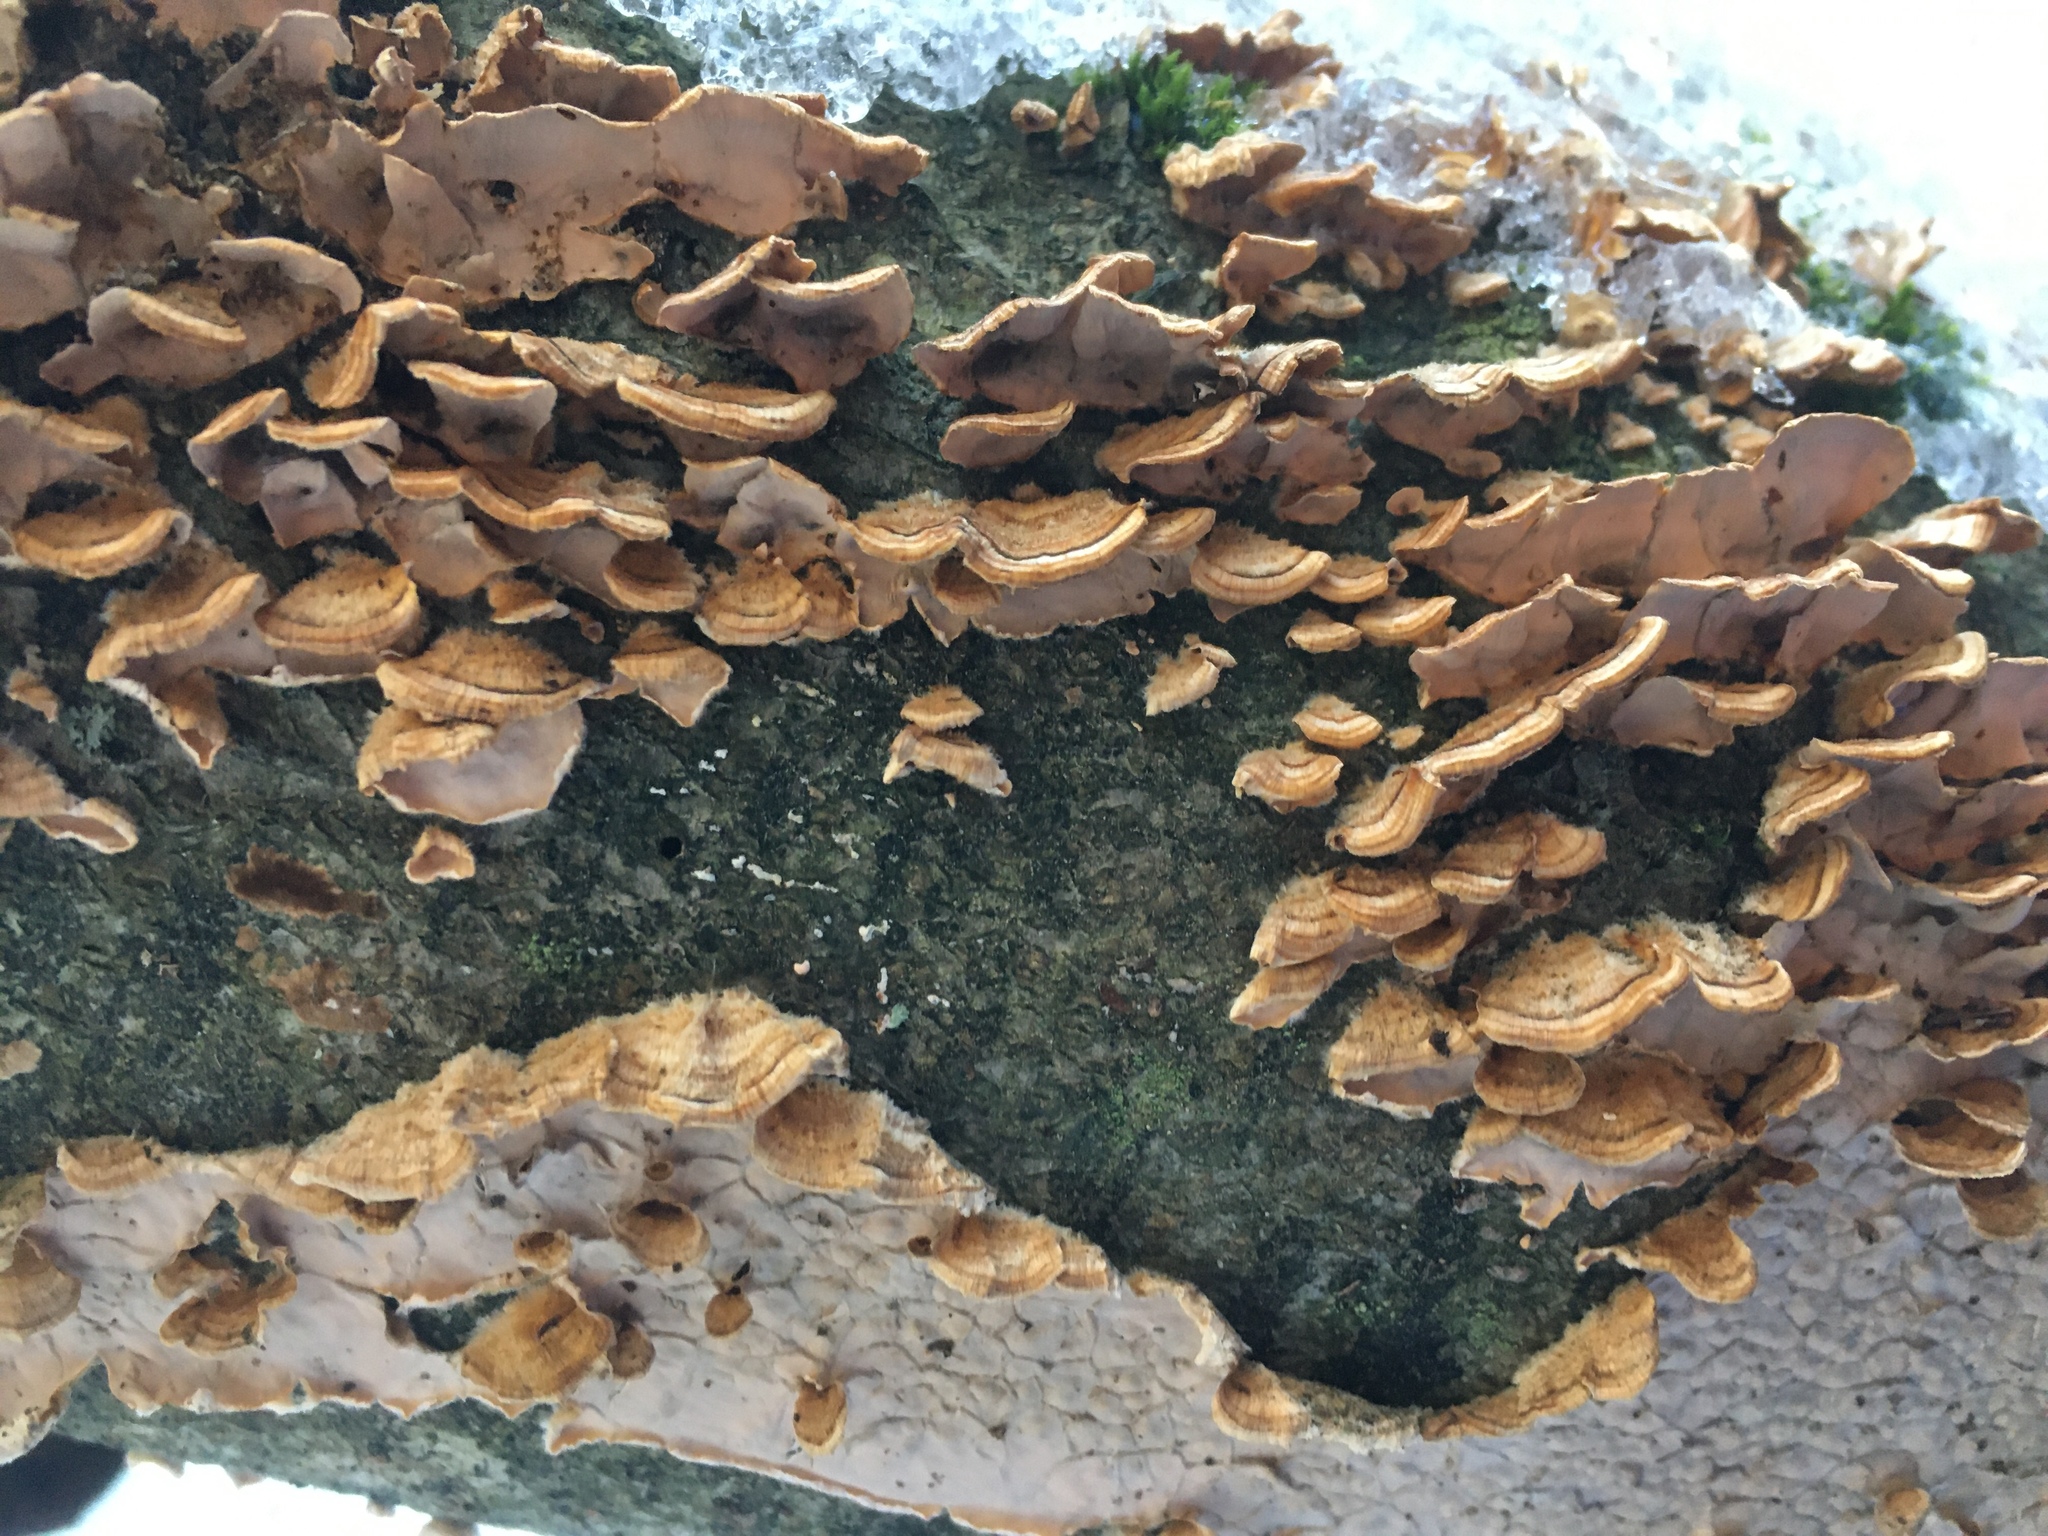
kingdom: Fungi
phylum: Basidiomycota
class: Agaricomycetes
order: Russulales
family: Stereaceae
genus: Stereum
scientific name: Stereum complicatum
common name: Crowded parchment
